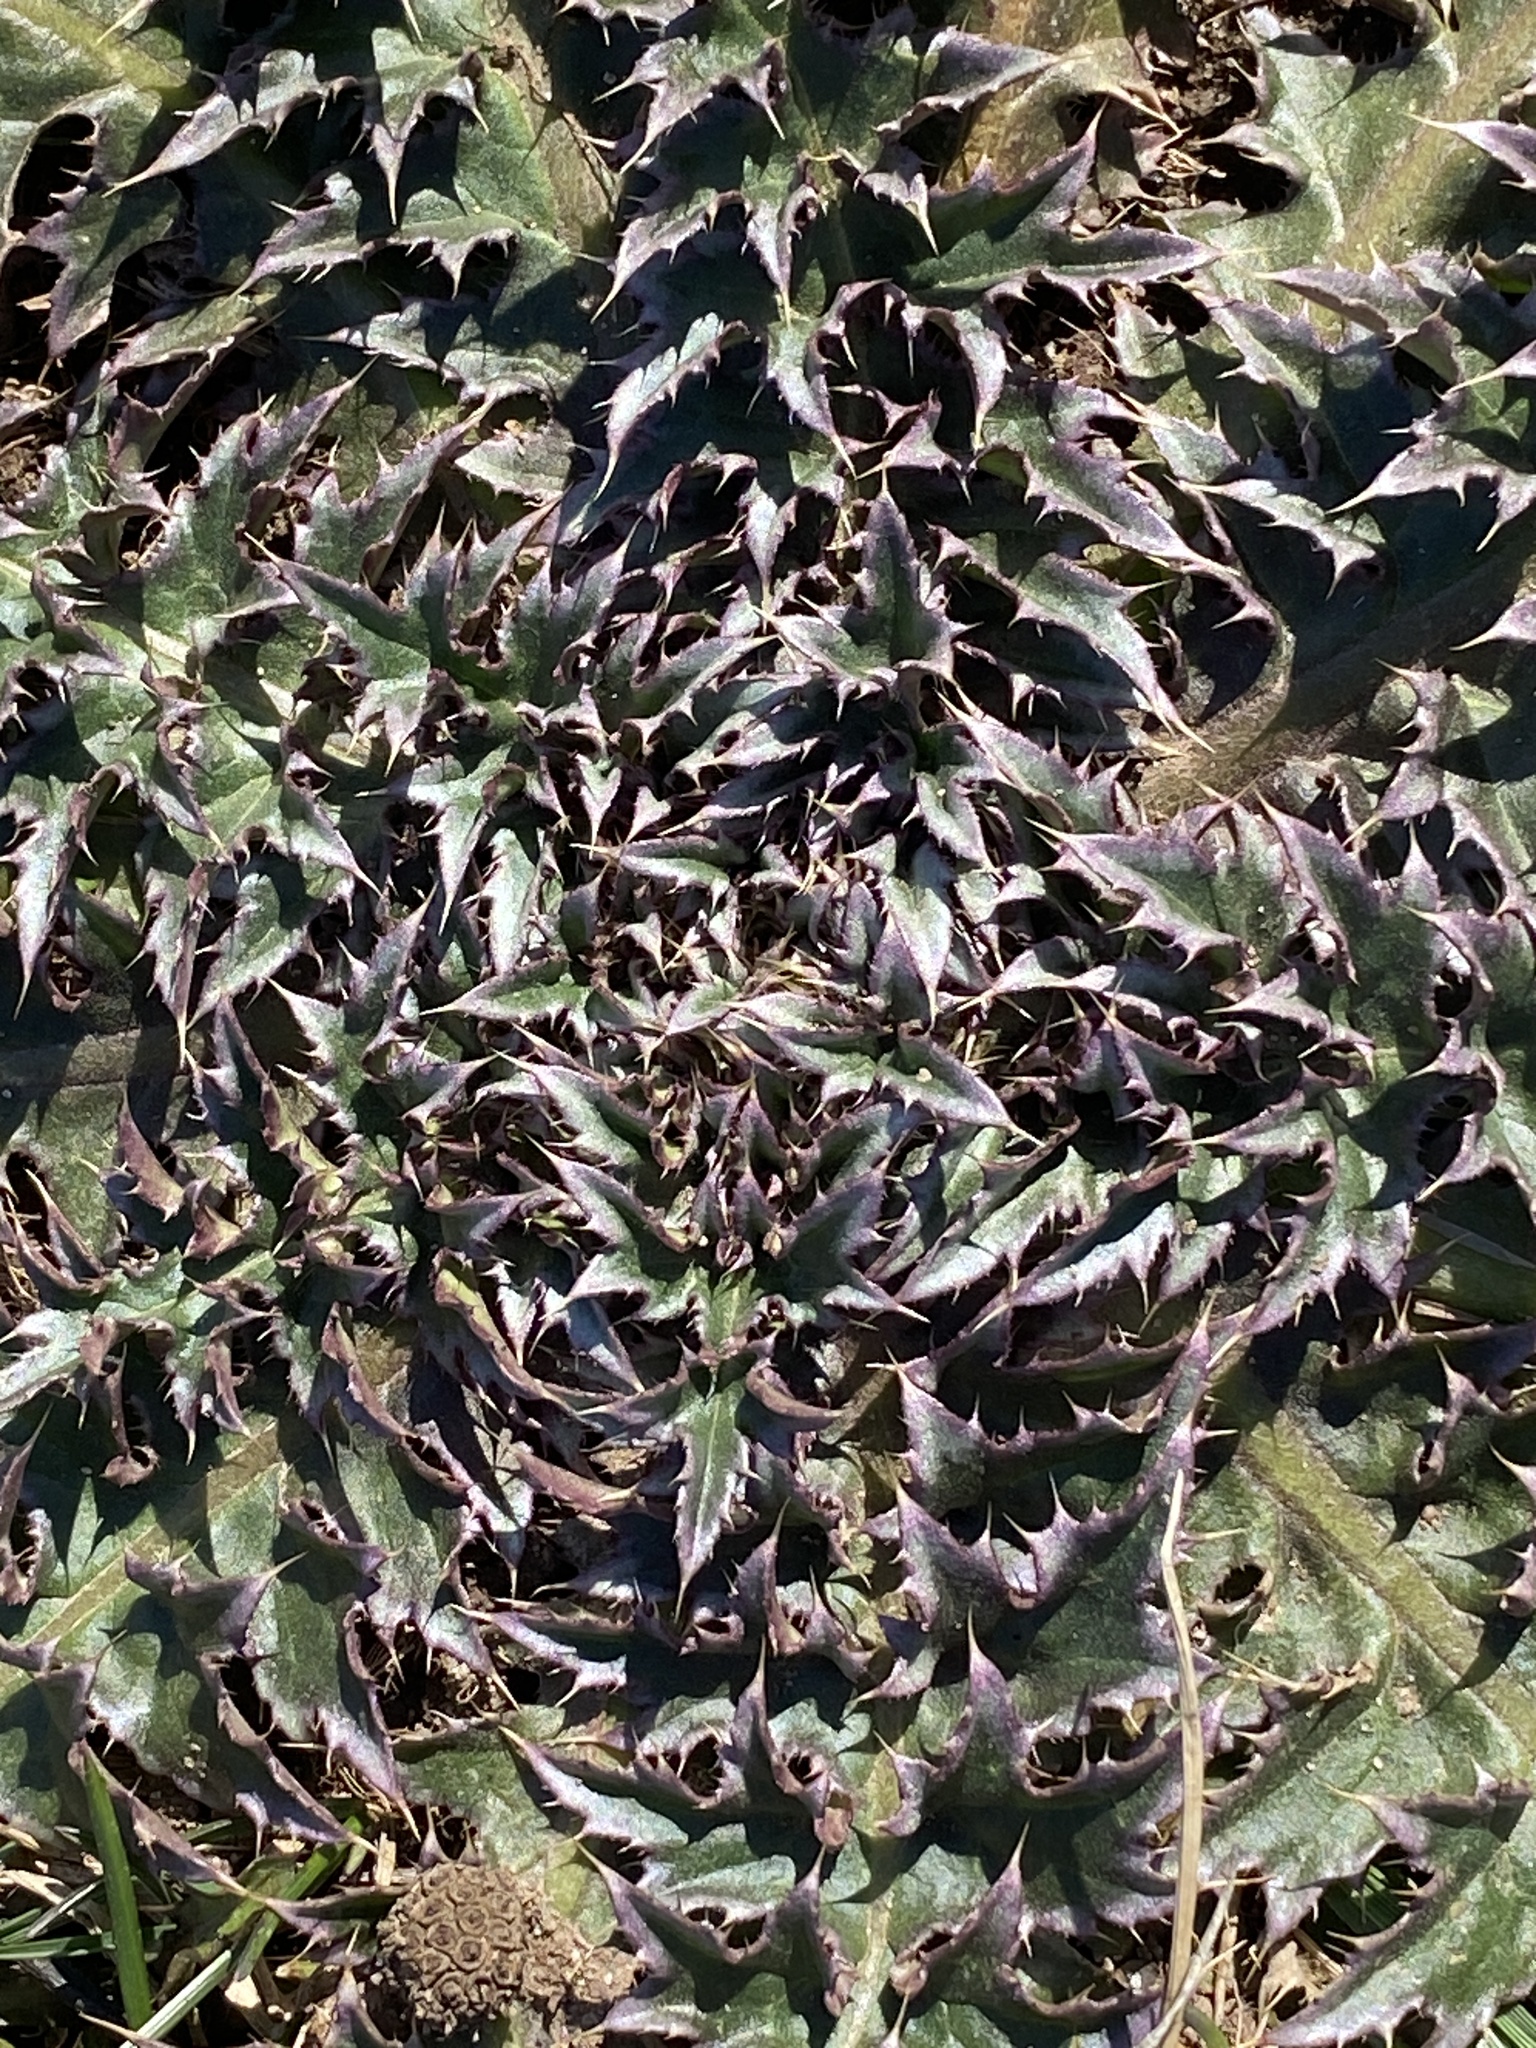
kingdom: Plantae
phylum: Tracheophyta
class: Magnoliopsida
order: Asterales
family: Asteraceae
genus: Carduus
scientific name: Carduus nutans
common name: Musk thistle
